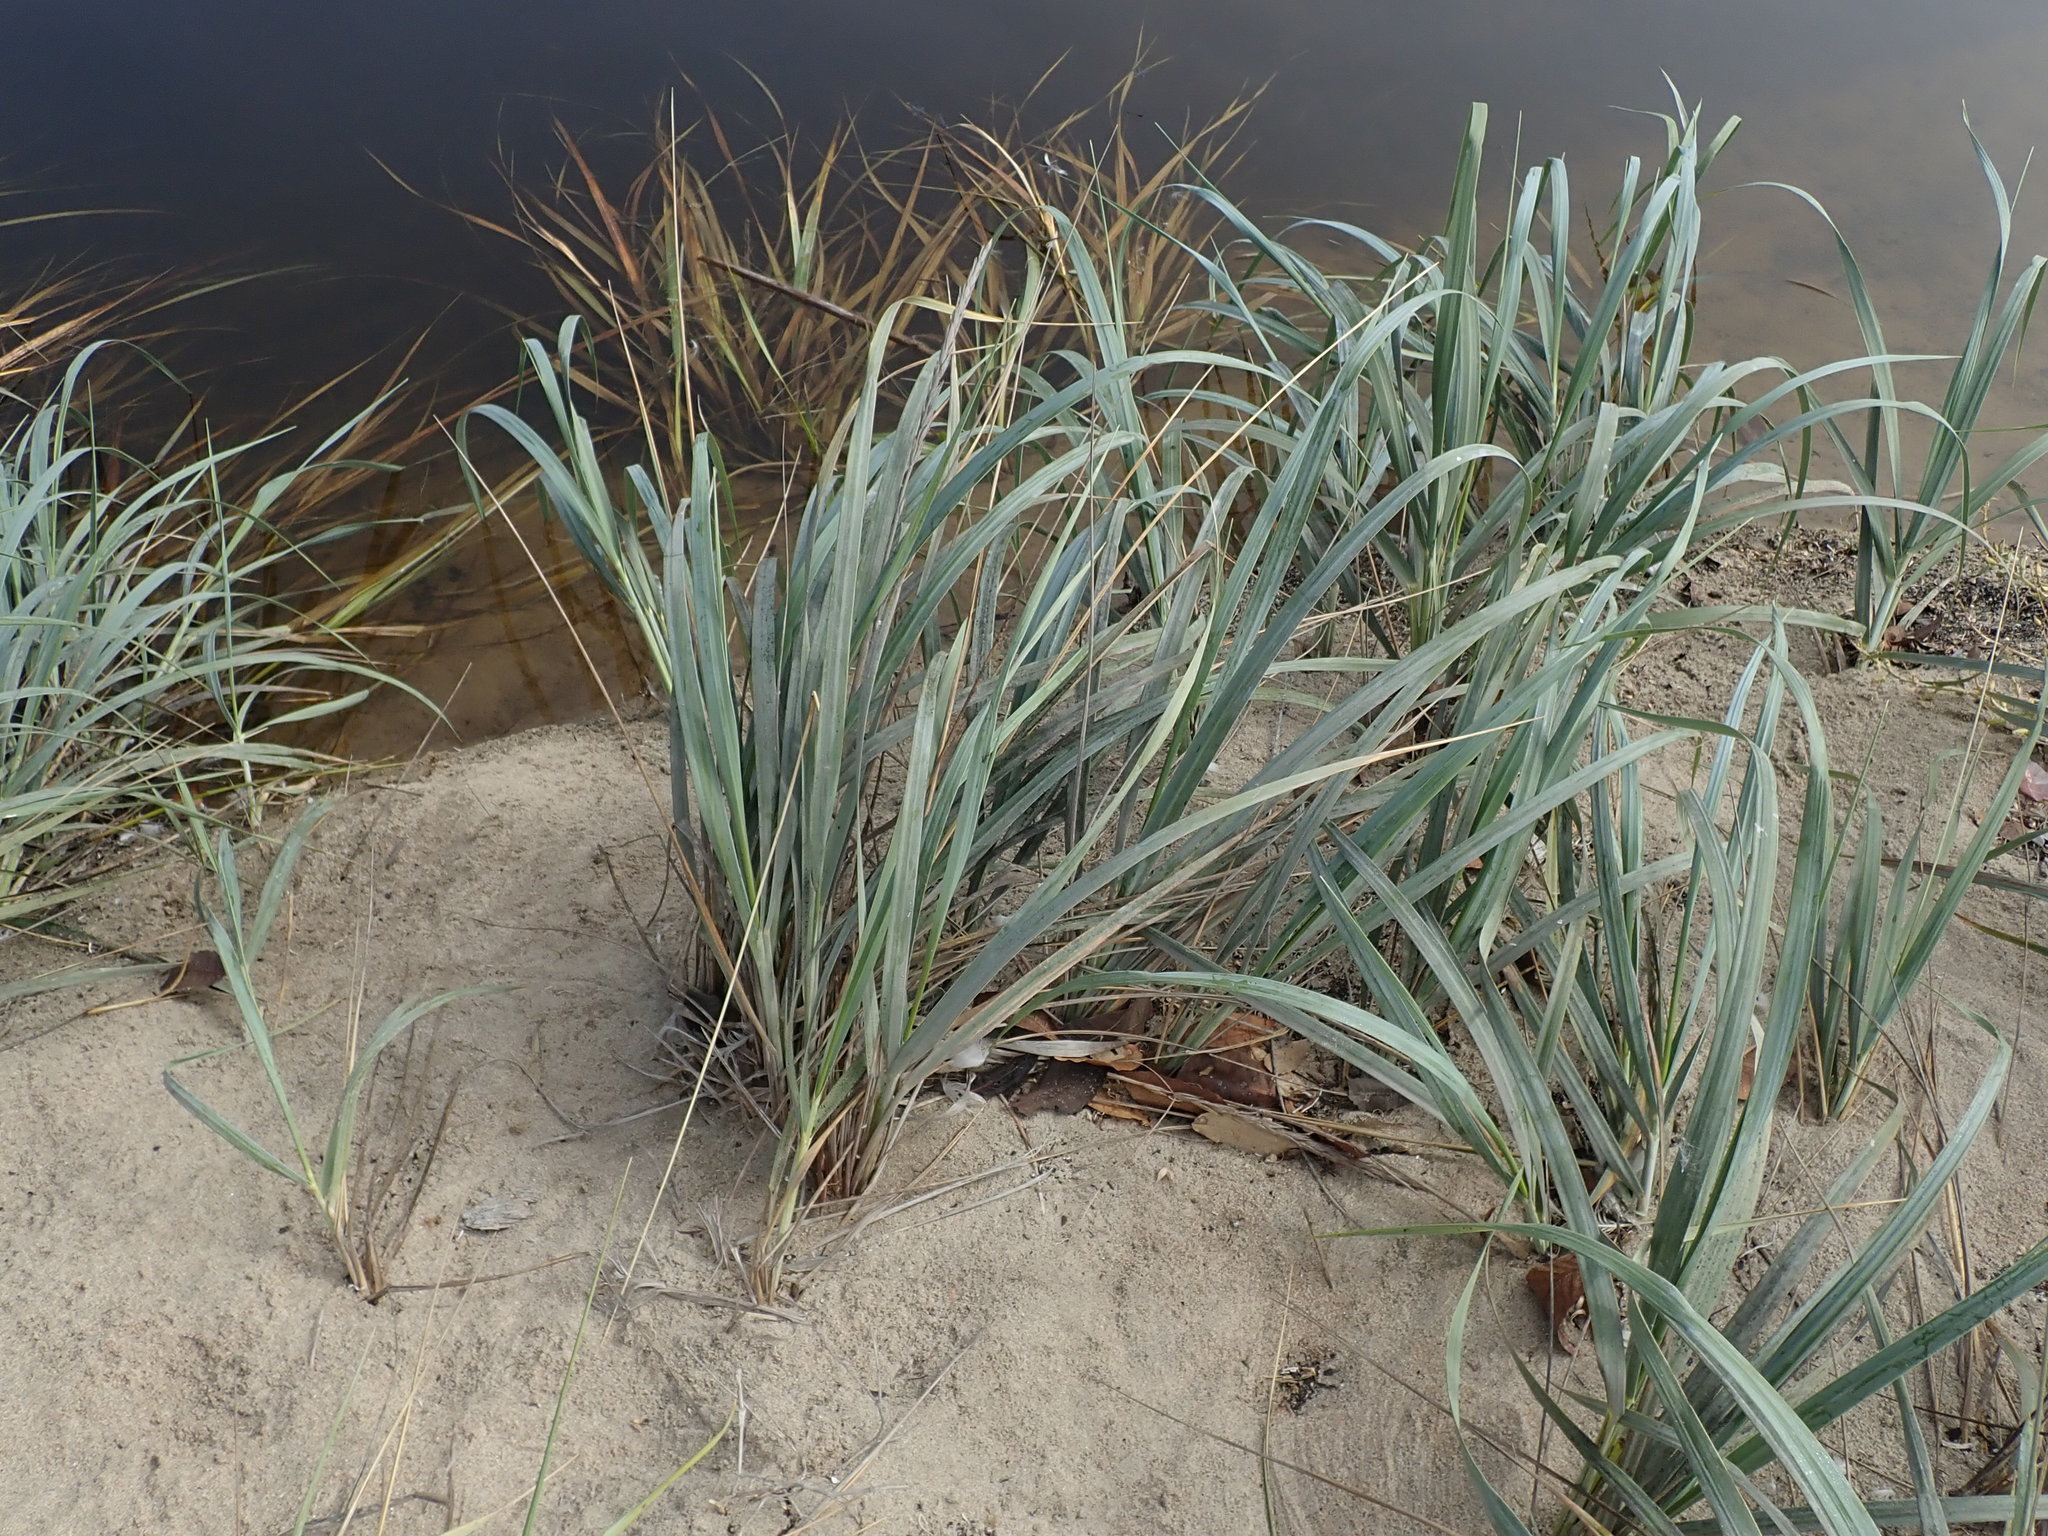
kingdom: Plantae
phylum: Tracheophyta
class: Liliopsida
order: Poales
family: Poaceae
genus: Leymus
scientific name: Leymus mollis
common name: American dune grass
